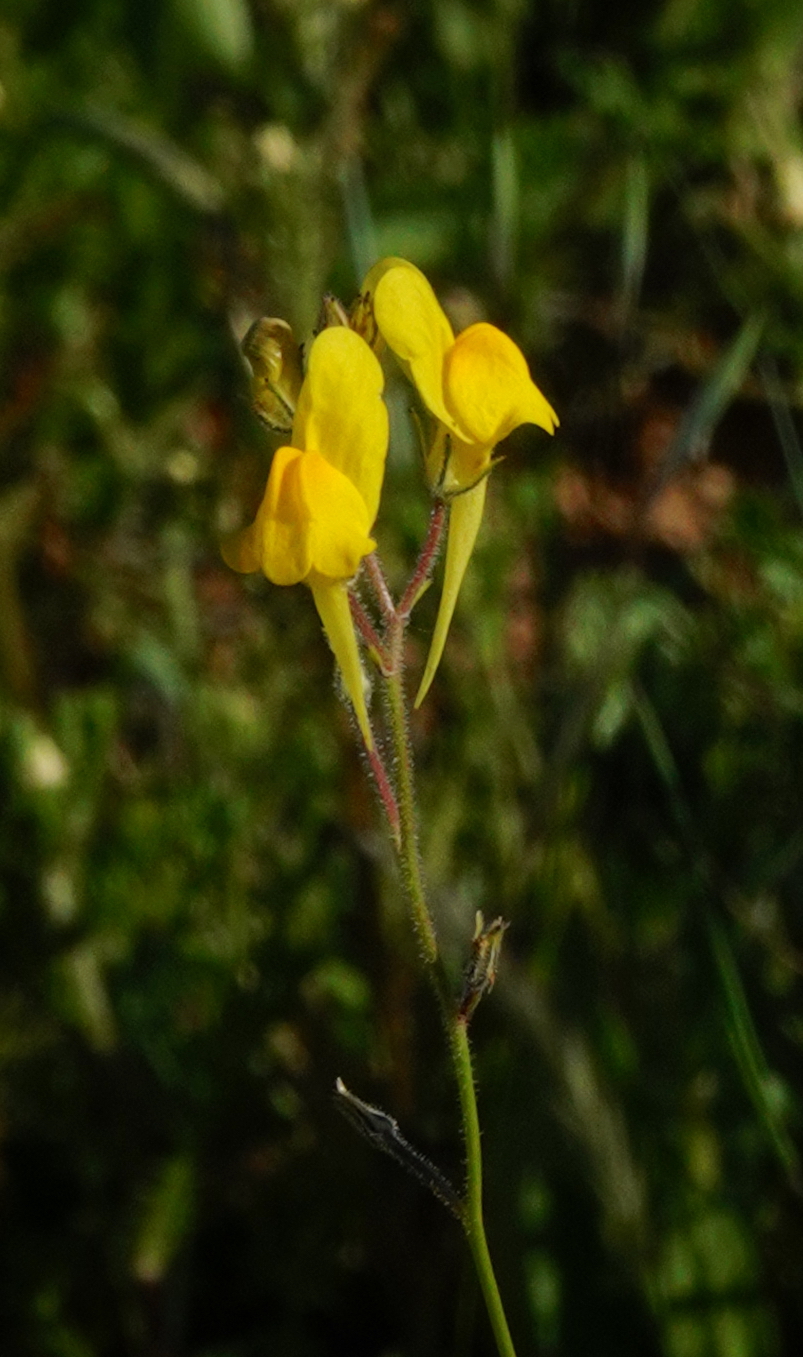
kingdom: Plantae
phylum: Tracheophyta
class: Magnoliopsida
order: Lamiales
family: Plantaginaceae
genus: Linaria
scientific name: Linaria spartea
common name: Ballast toadflax
